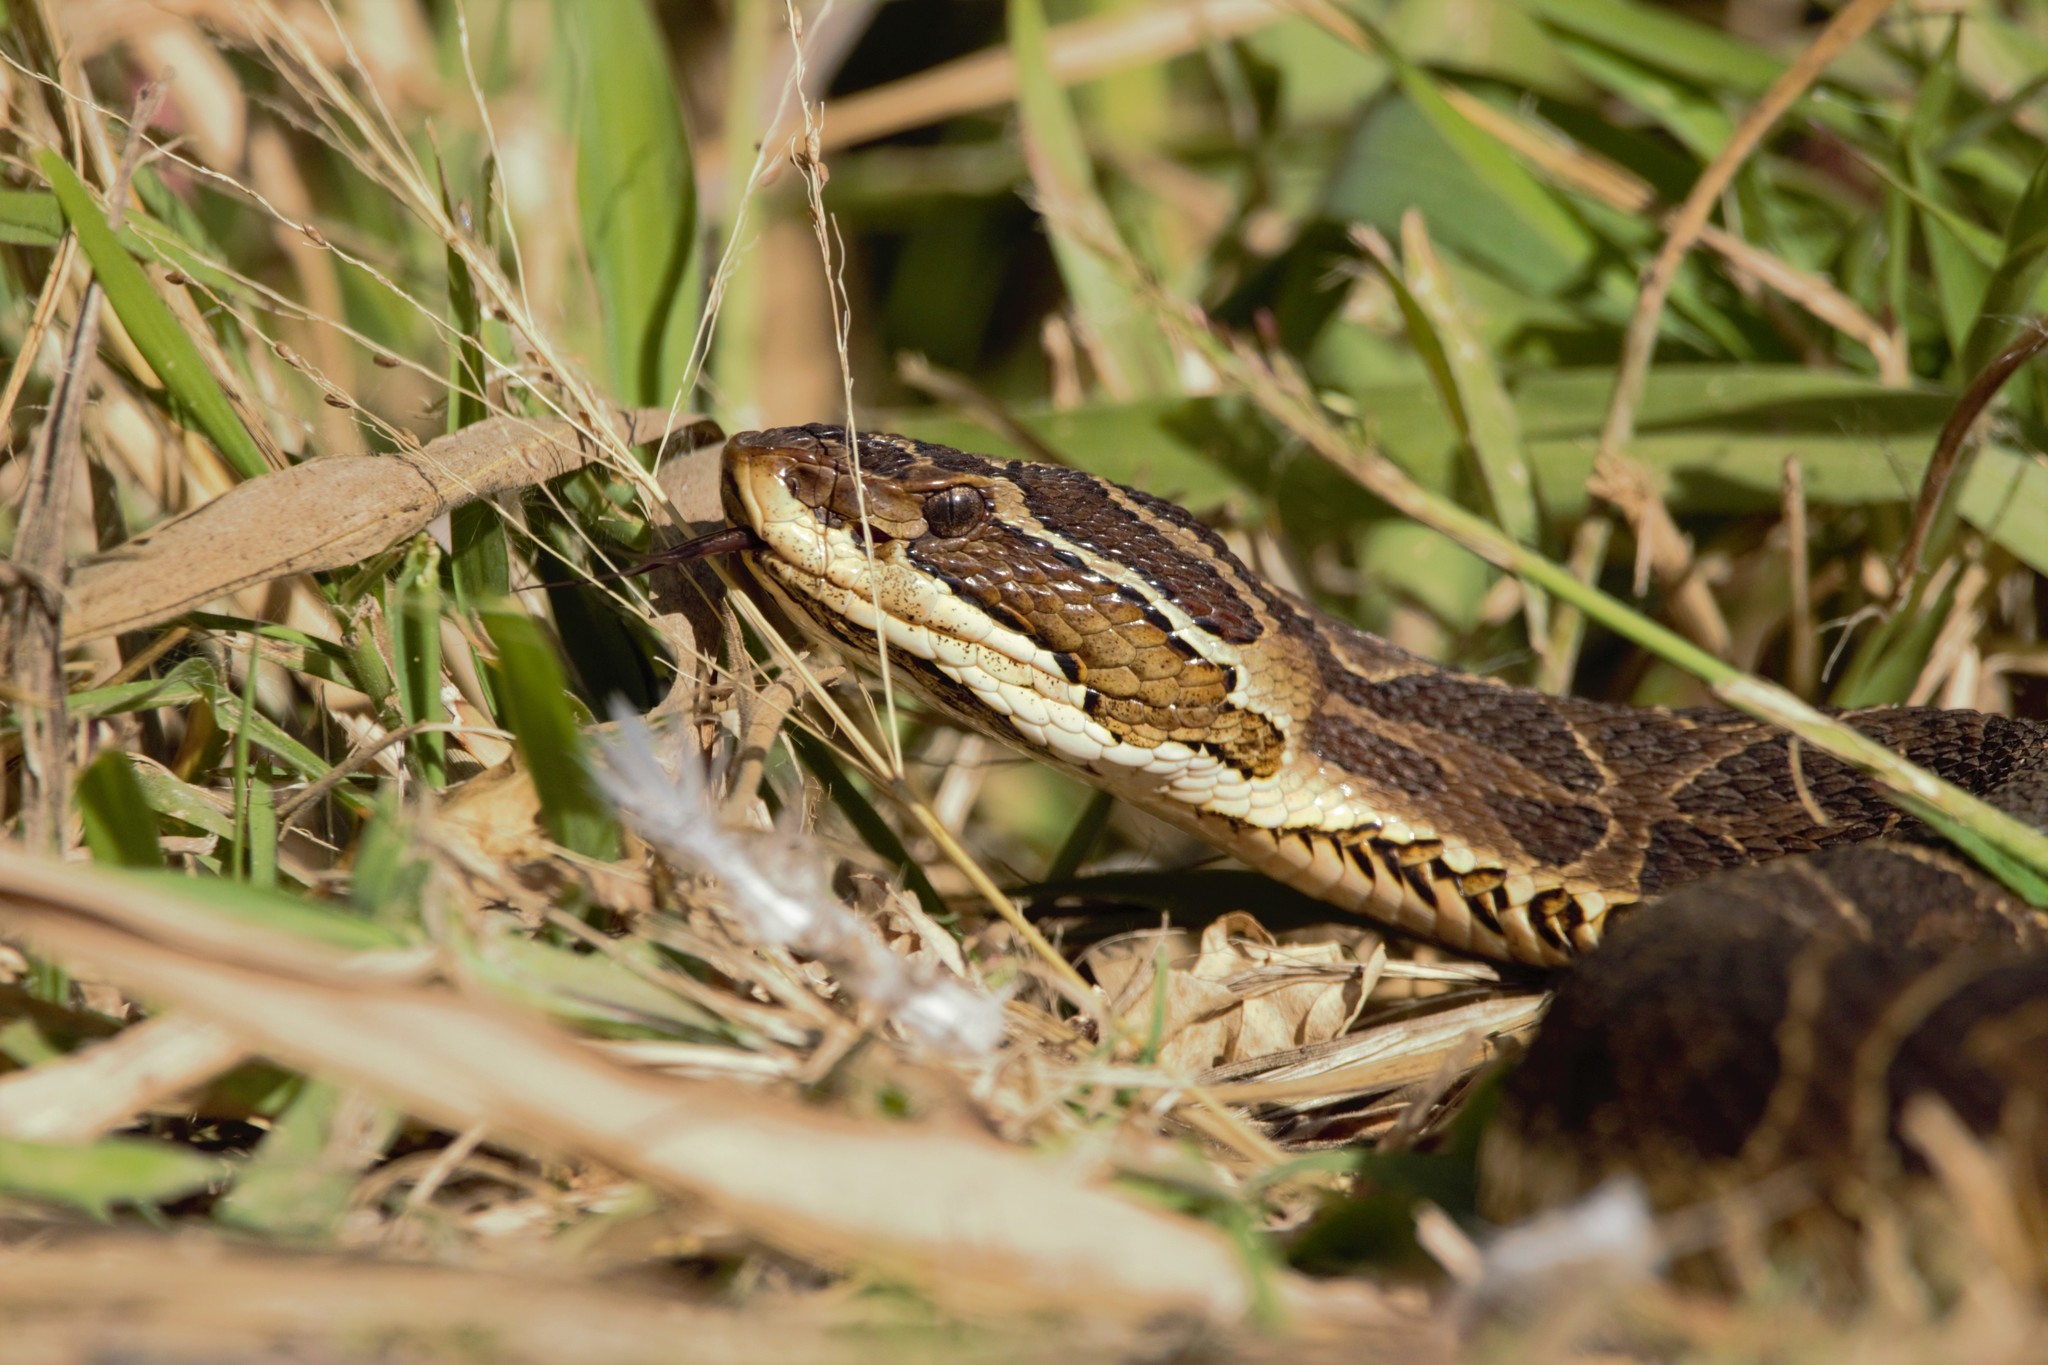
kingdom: Animalia
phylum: Chordata
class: Squamata
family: Viperidae
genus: Bothrops
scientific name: Bothrops alternatus
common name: Urutu
